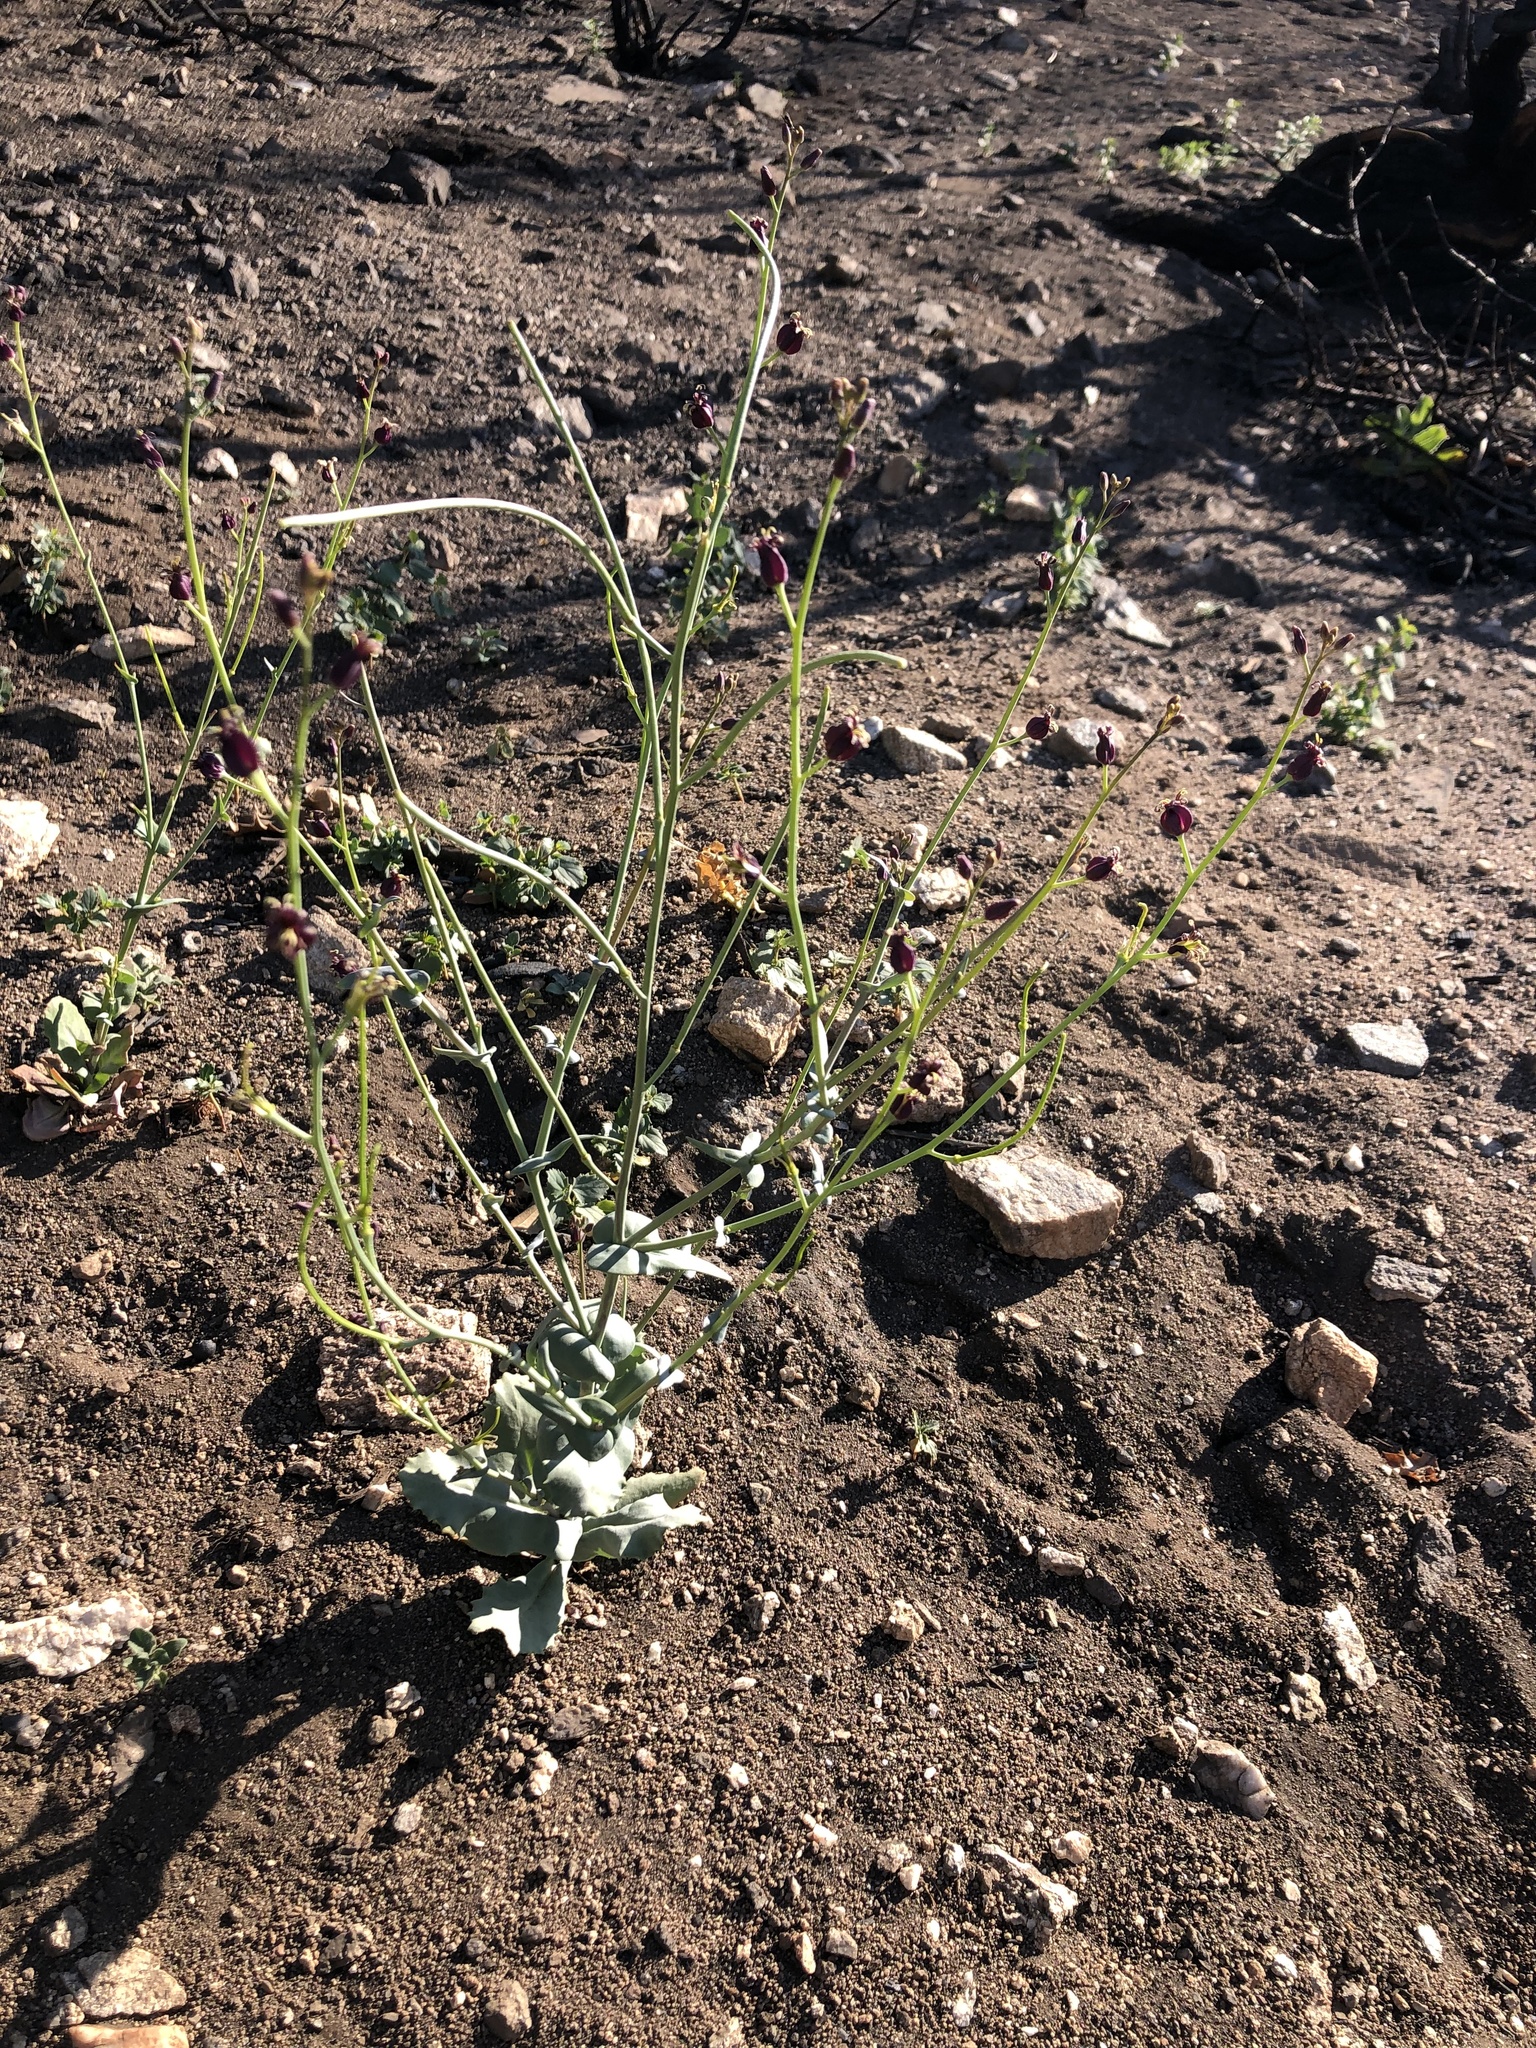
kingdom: Plantae
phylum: Tracheophyta
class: Magnoliopsida
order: Brassicales
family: Brassicaceae
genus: Streptanthus
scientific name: Streptanthus amplexicaulis
